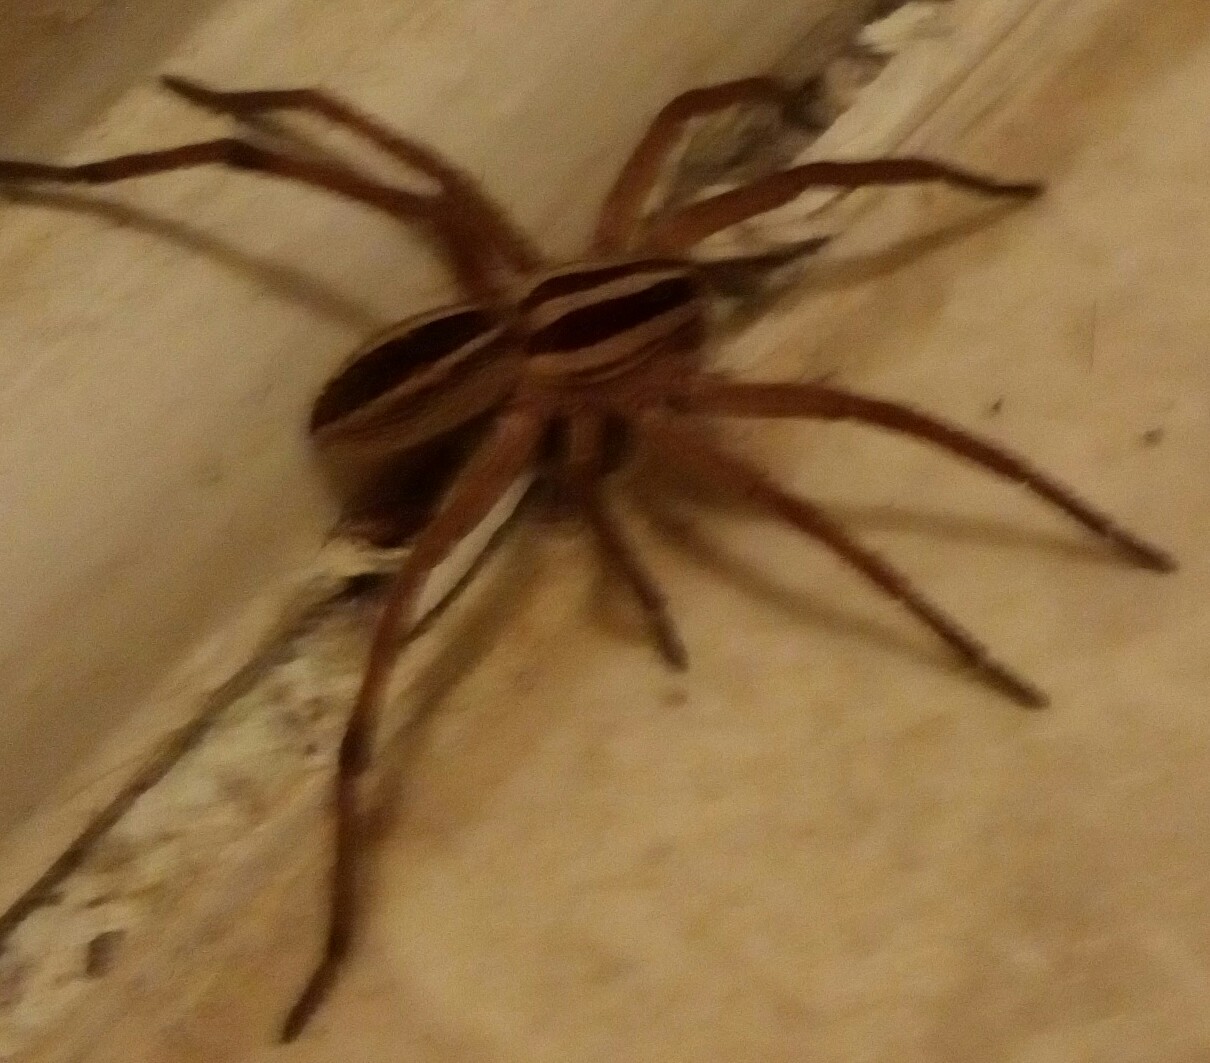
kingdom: Animalia
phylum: Arthropoda
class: Arachnida
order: Araneae
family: Lycosidae
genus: Rabidosa
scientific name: Rabidosa rabida
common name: Rabid wolf spider
